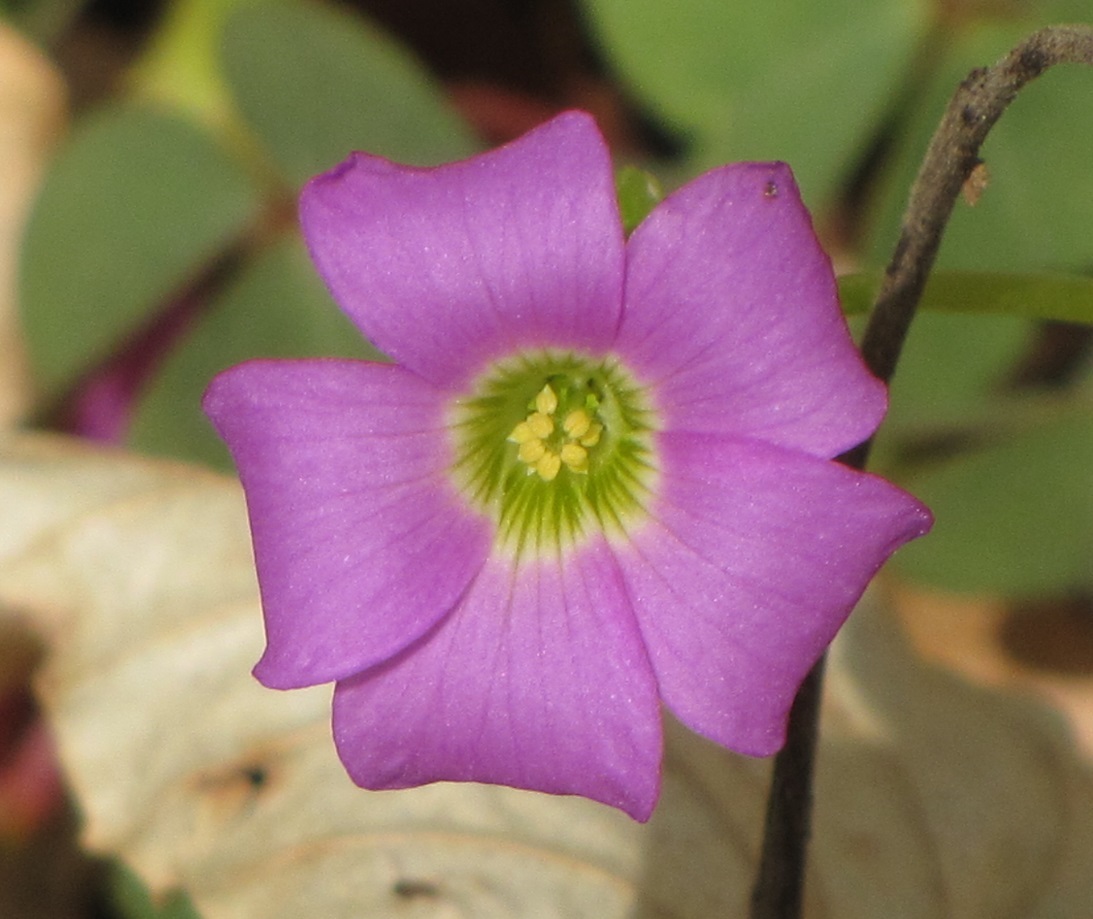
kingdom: Plantae
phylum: Tracheophyta
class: Magnoliopsida
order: Oxalidales
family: Oxalidaceae
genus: Oxalis
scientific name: Oxalis violacea
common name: Violet wood-sorrel
